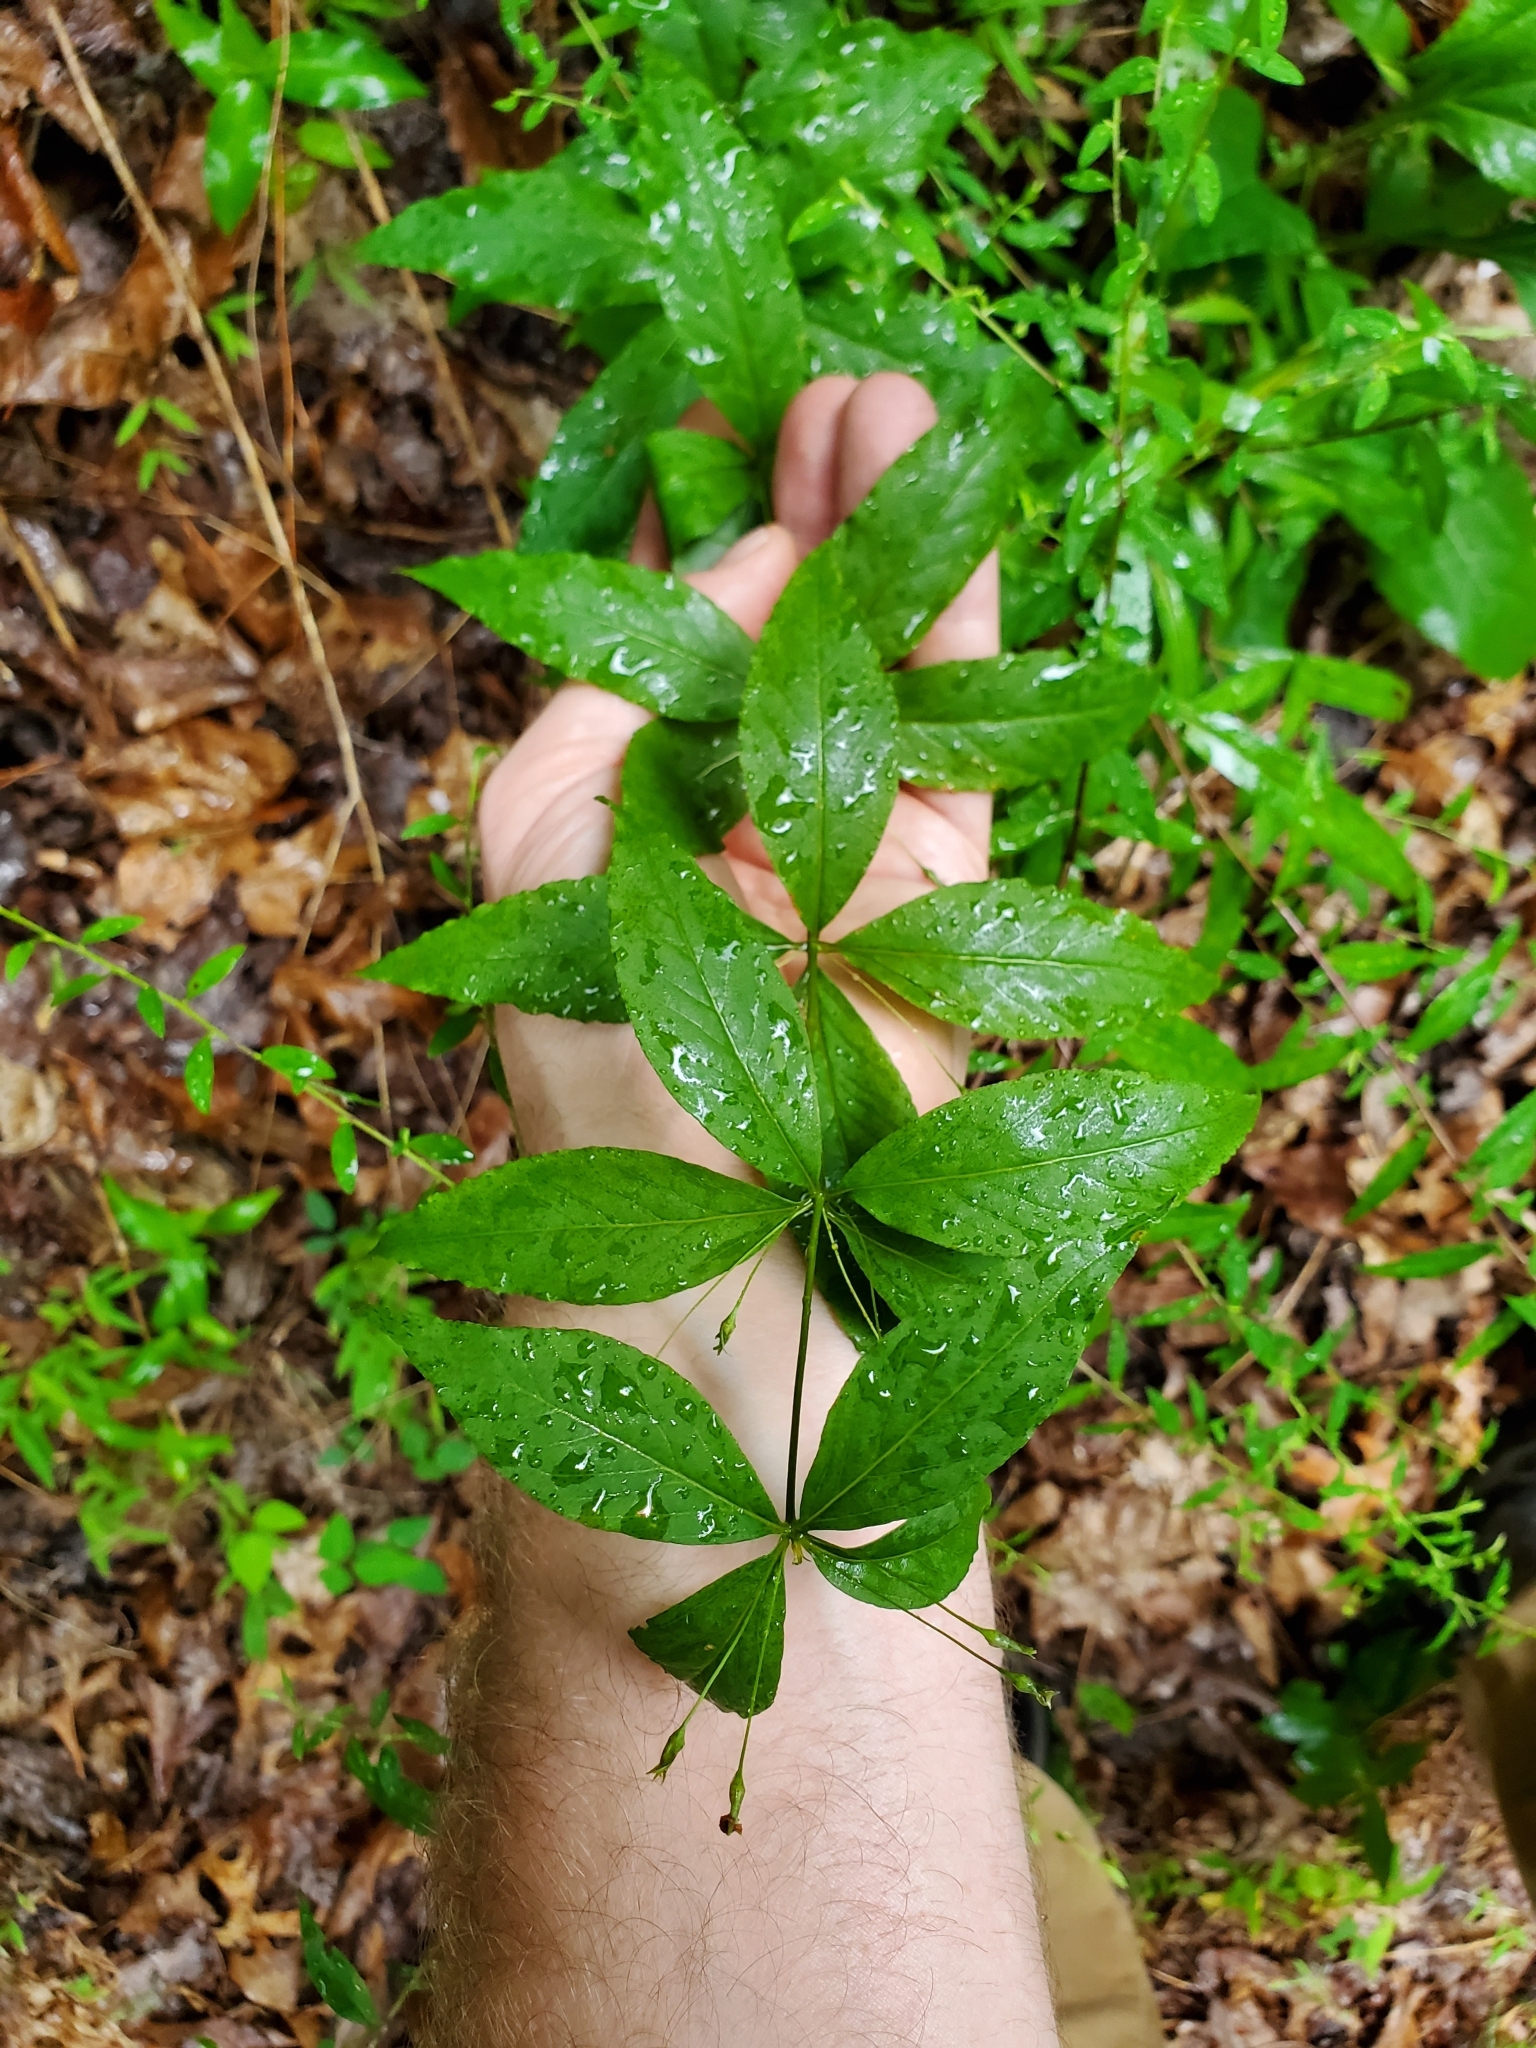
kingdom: Plantae
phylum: Tracheophyta
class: Magnoliopsida
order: Ericales
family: Primulaceae
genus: Lysimachia
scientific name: Lysimachia quadrifolia
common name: Whorled loosestrife
